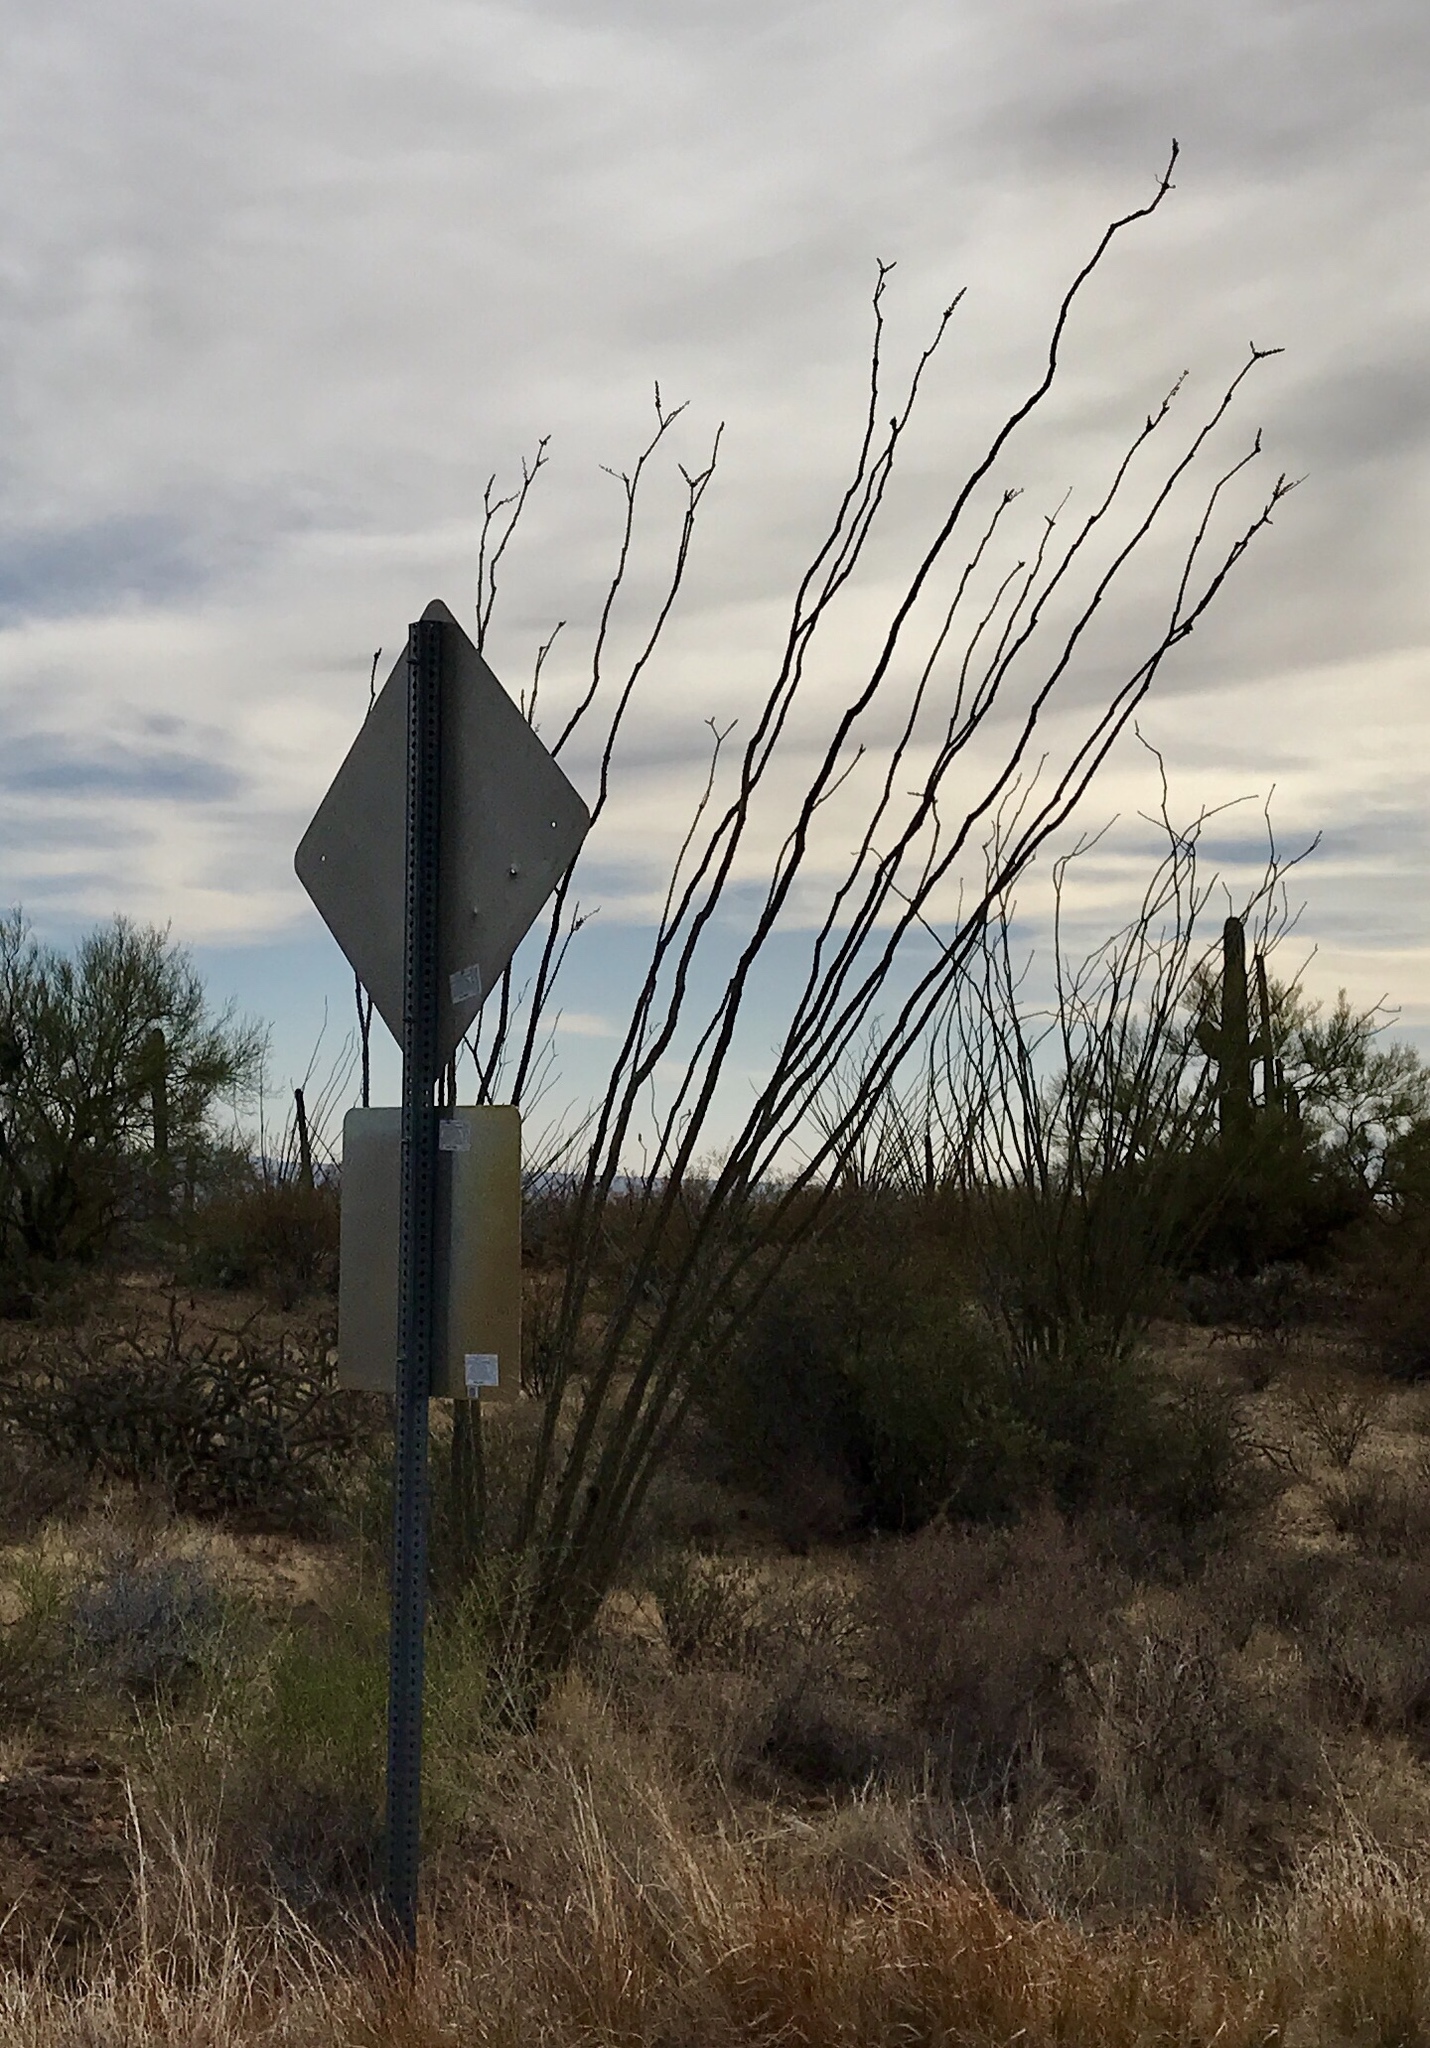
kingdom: Plantae
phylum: Tracheophyta
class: Magnoliopsida
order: Ericales
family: Fouquieriaceae
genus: Fouquieria
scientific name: Fouquieria splendens
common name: Vine-cactus
